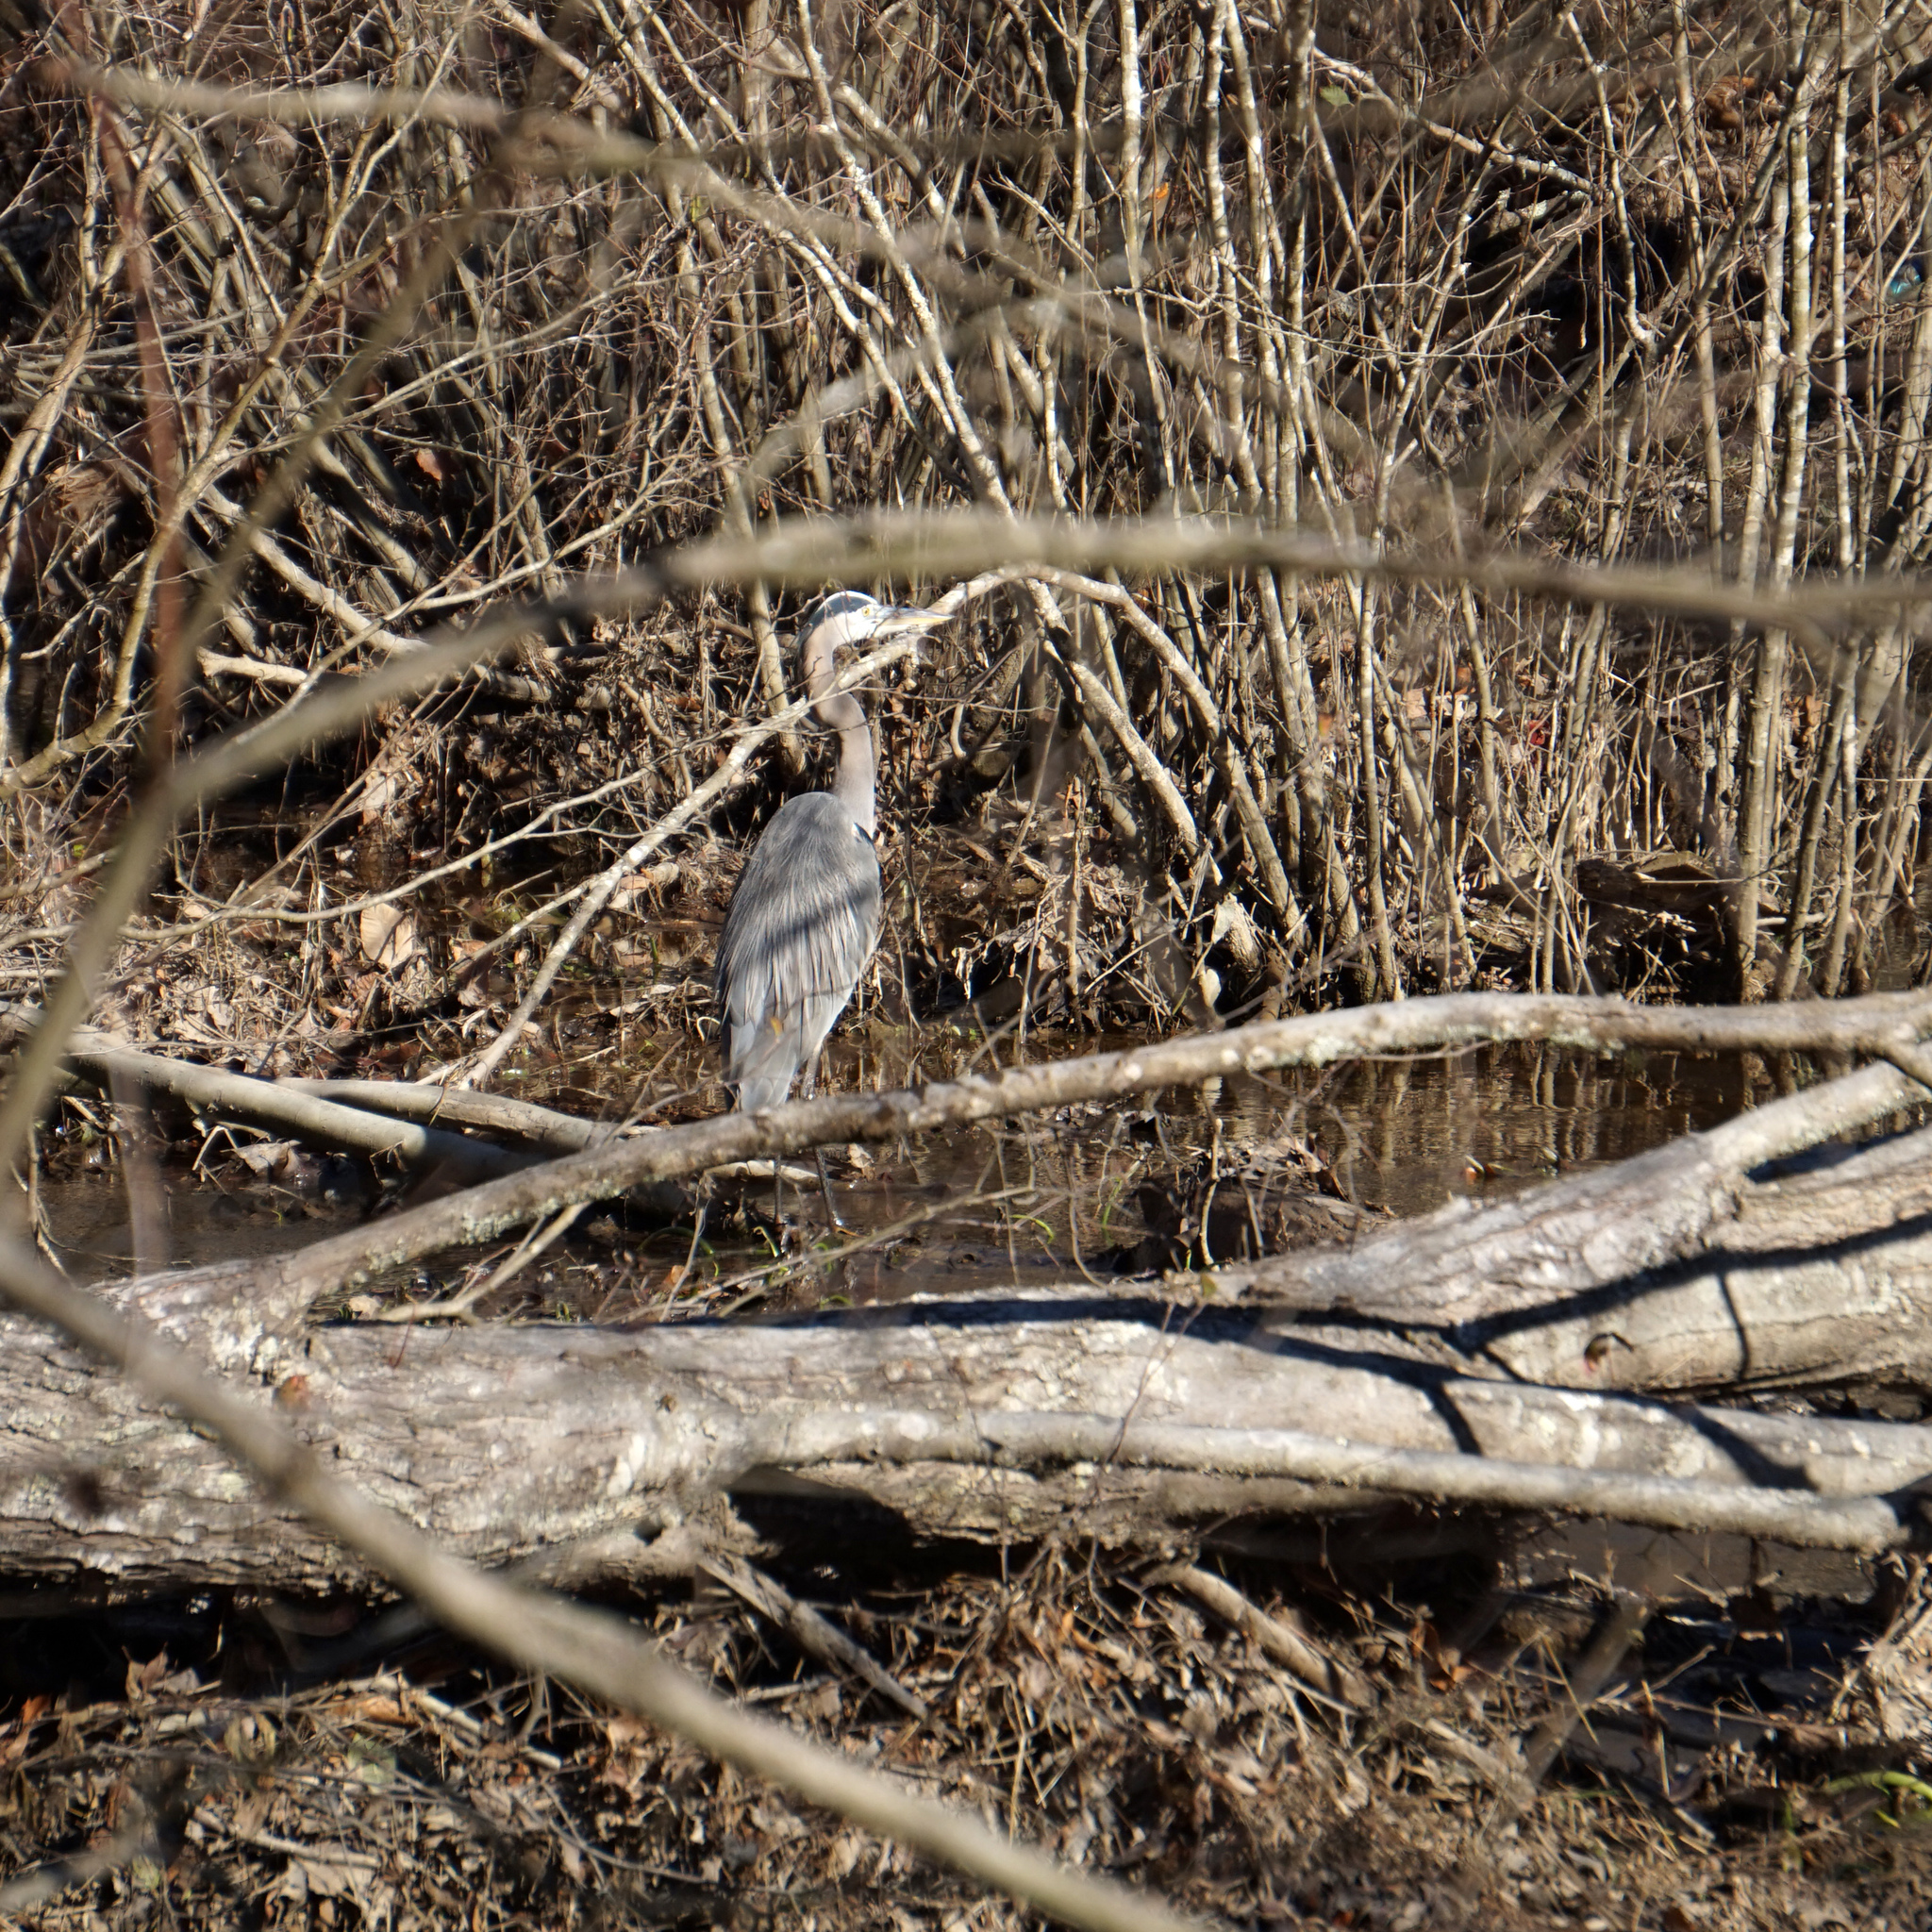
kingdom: Animalia
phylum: Chordata
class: Aves
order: Pelecaniformes
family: Ardeidae
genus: Ardea
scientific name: Ardea herodias
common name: Great blue heron
